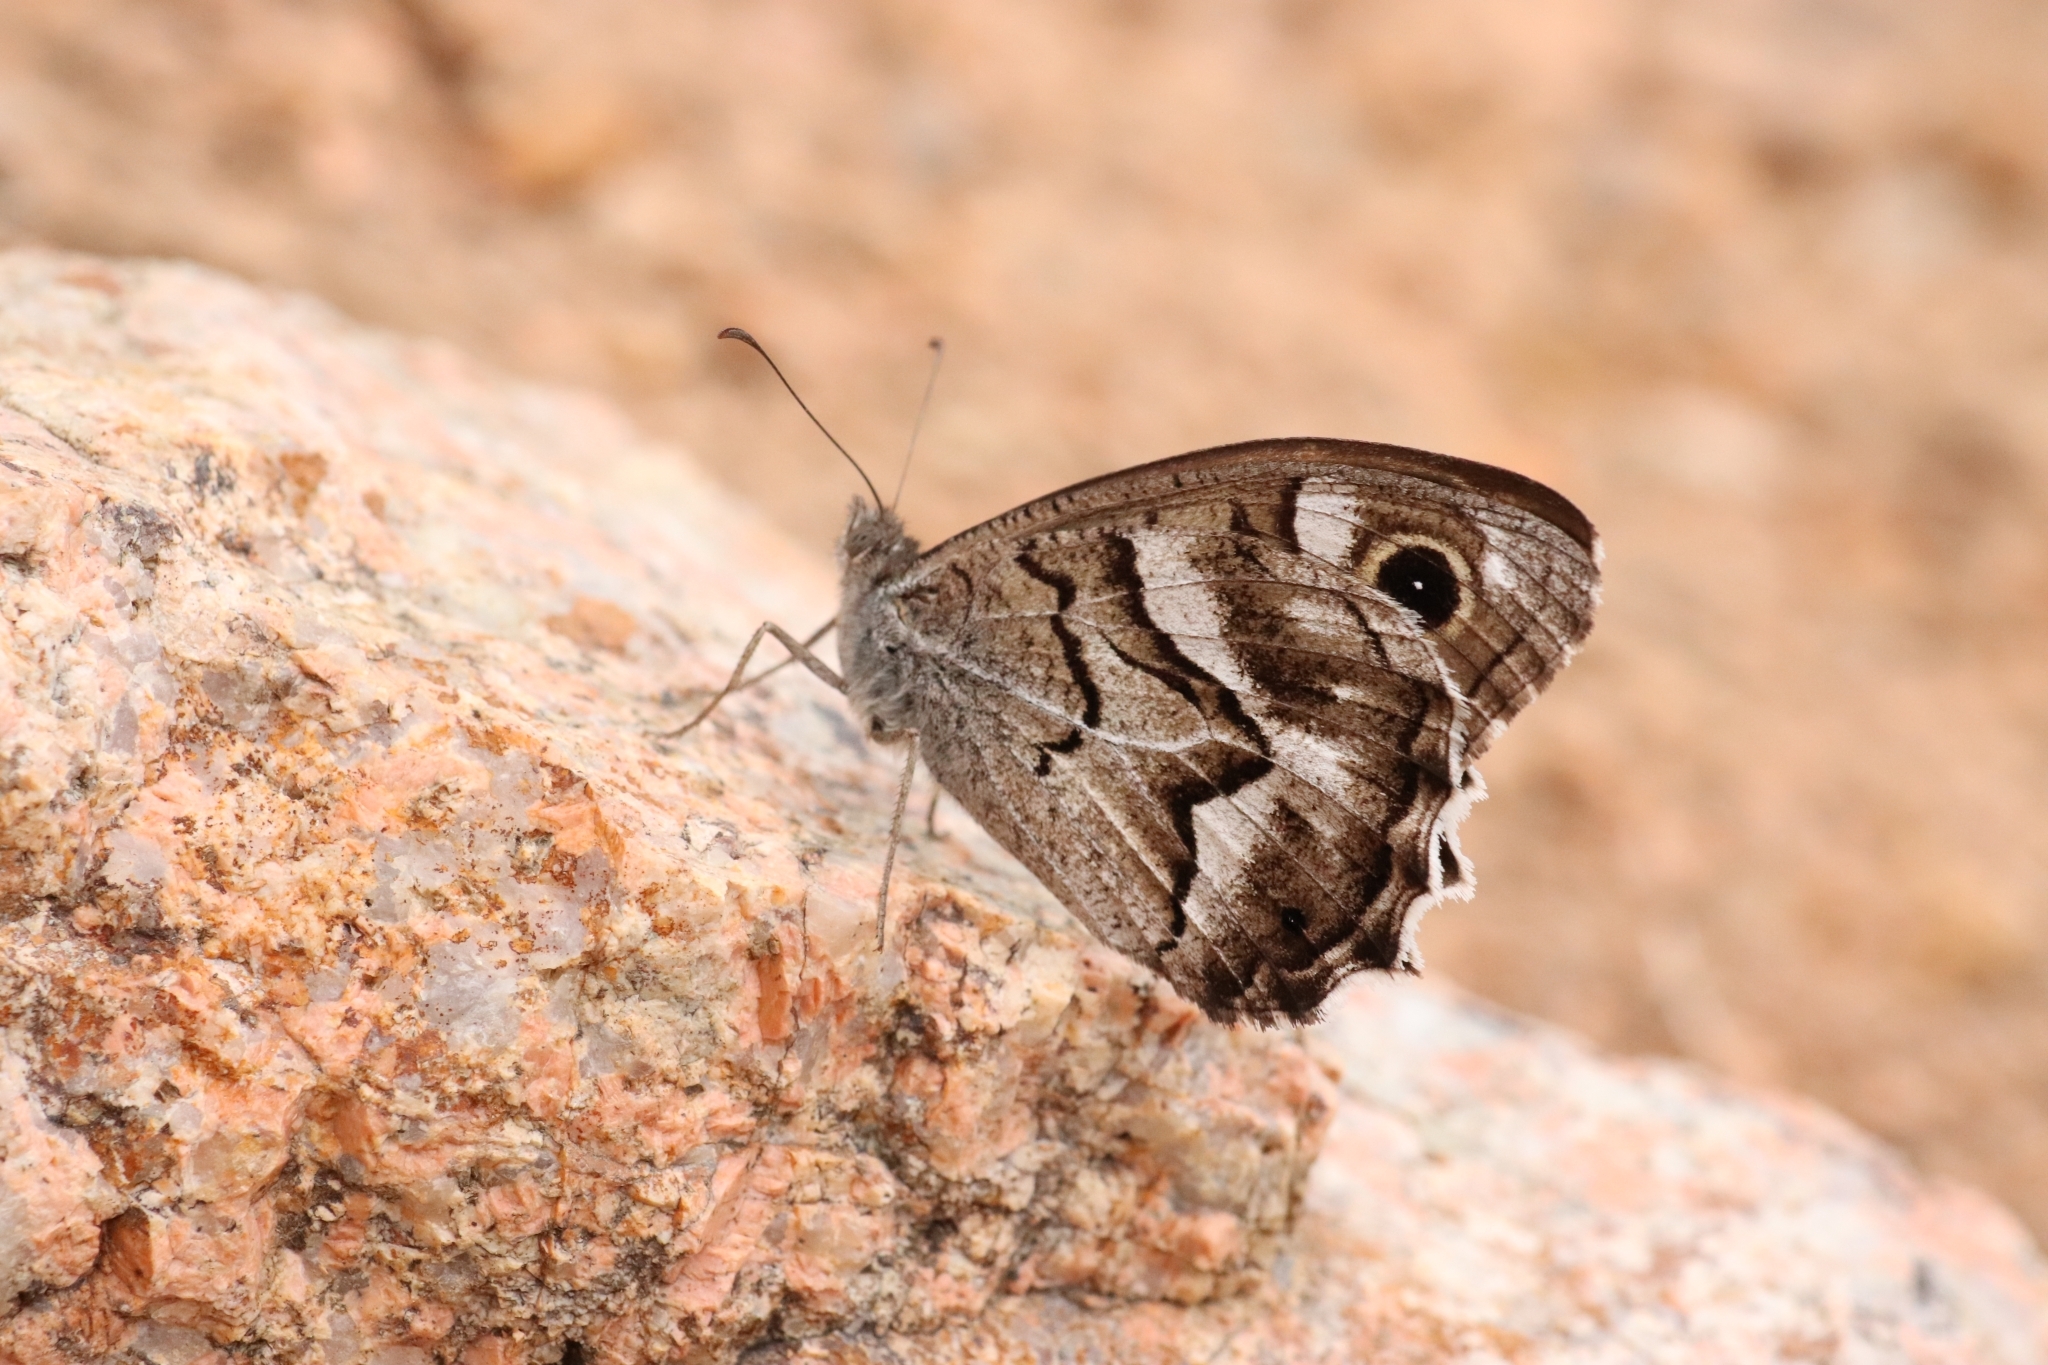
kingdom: Animalia
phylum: Arthropoda
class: Insecta
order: Lepidoptera
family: Nymphalidae
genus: Hipparchia
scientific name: Hipparchia fidia
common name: Striped grayling
